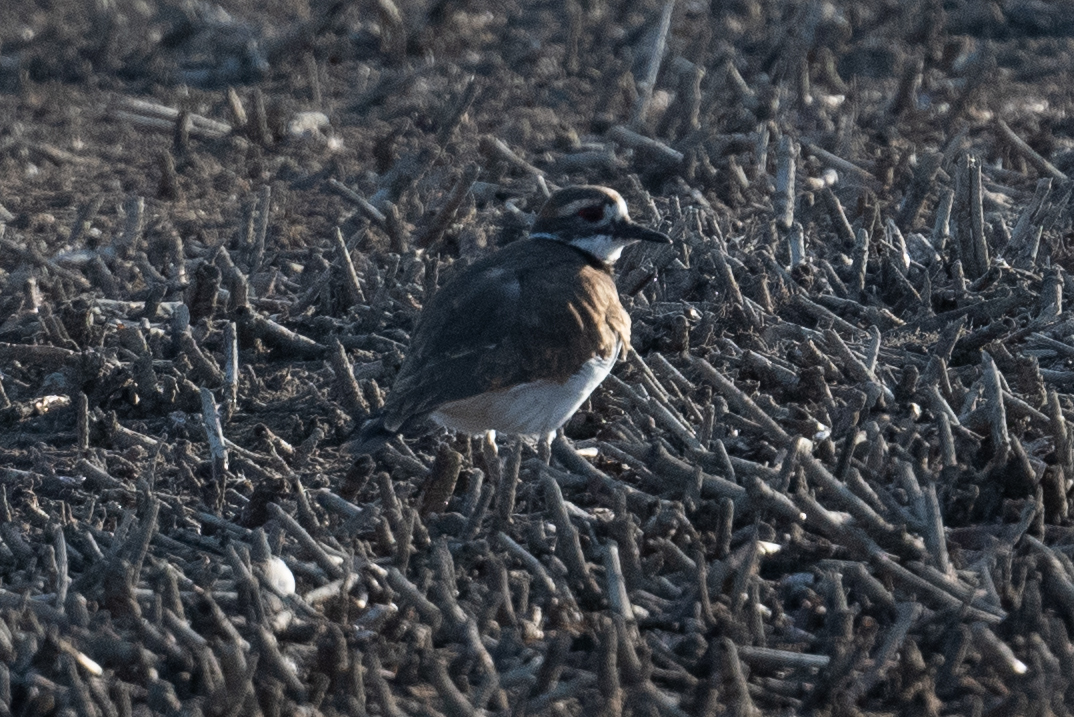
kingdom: Animalia
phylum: Chordata
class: Aves
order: Charadriiformes
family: Charadriidae
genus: Charadrius
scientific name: Charadrius vociferus
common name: Killdeer
